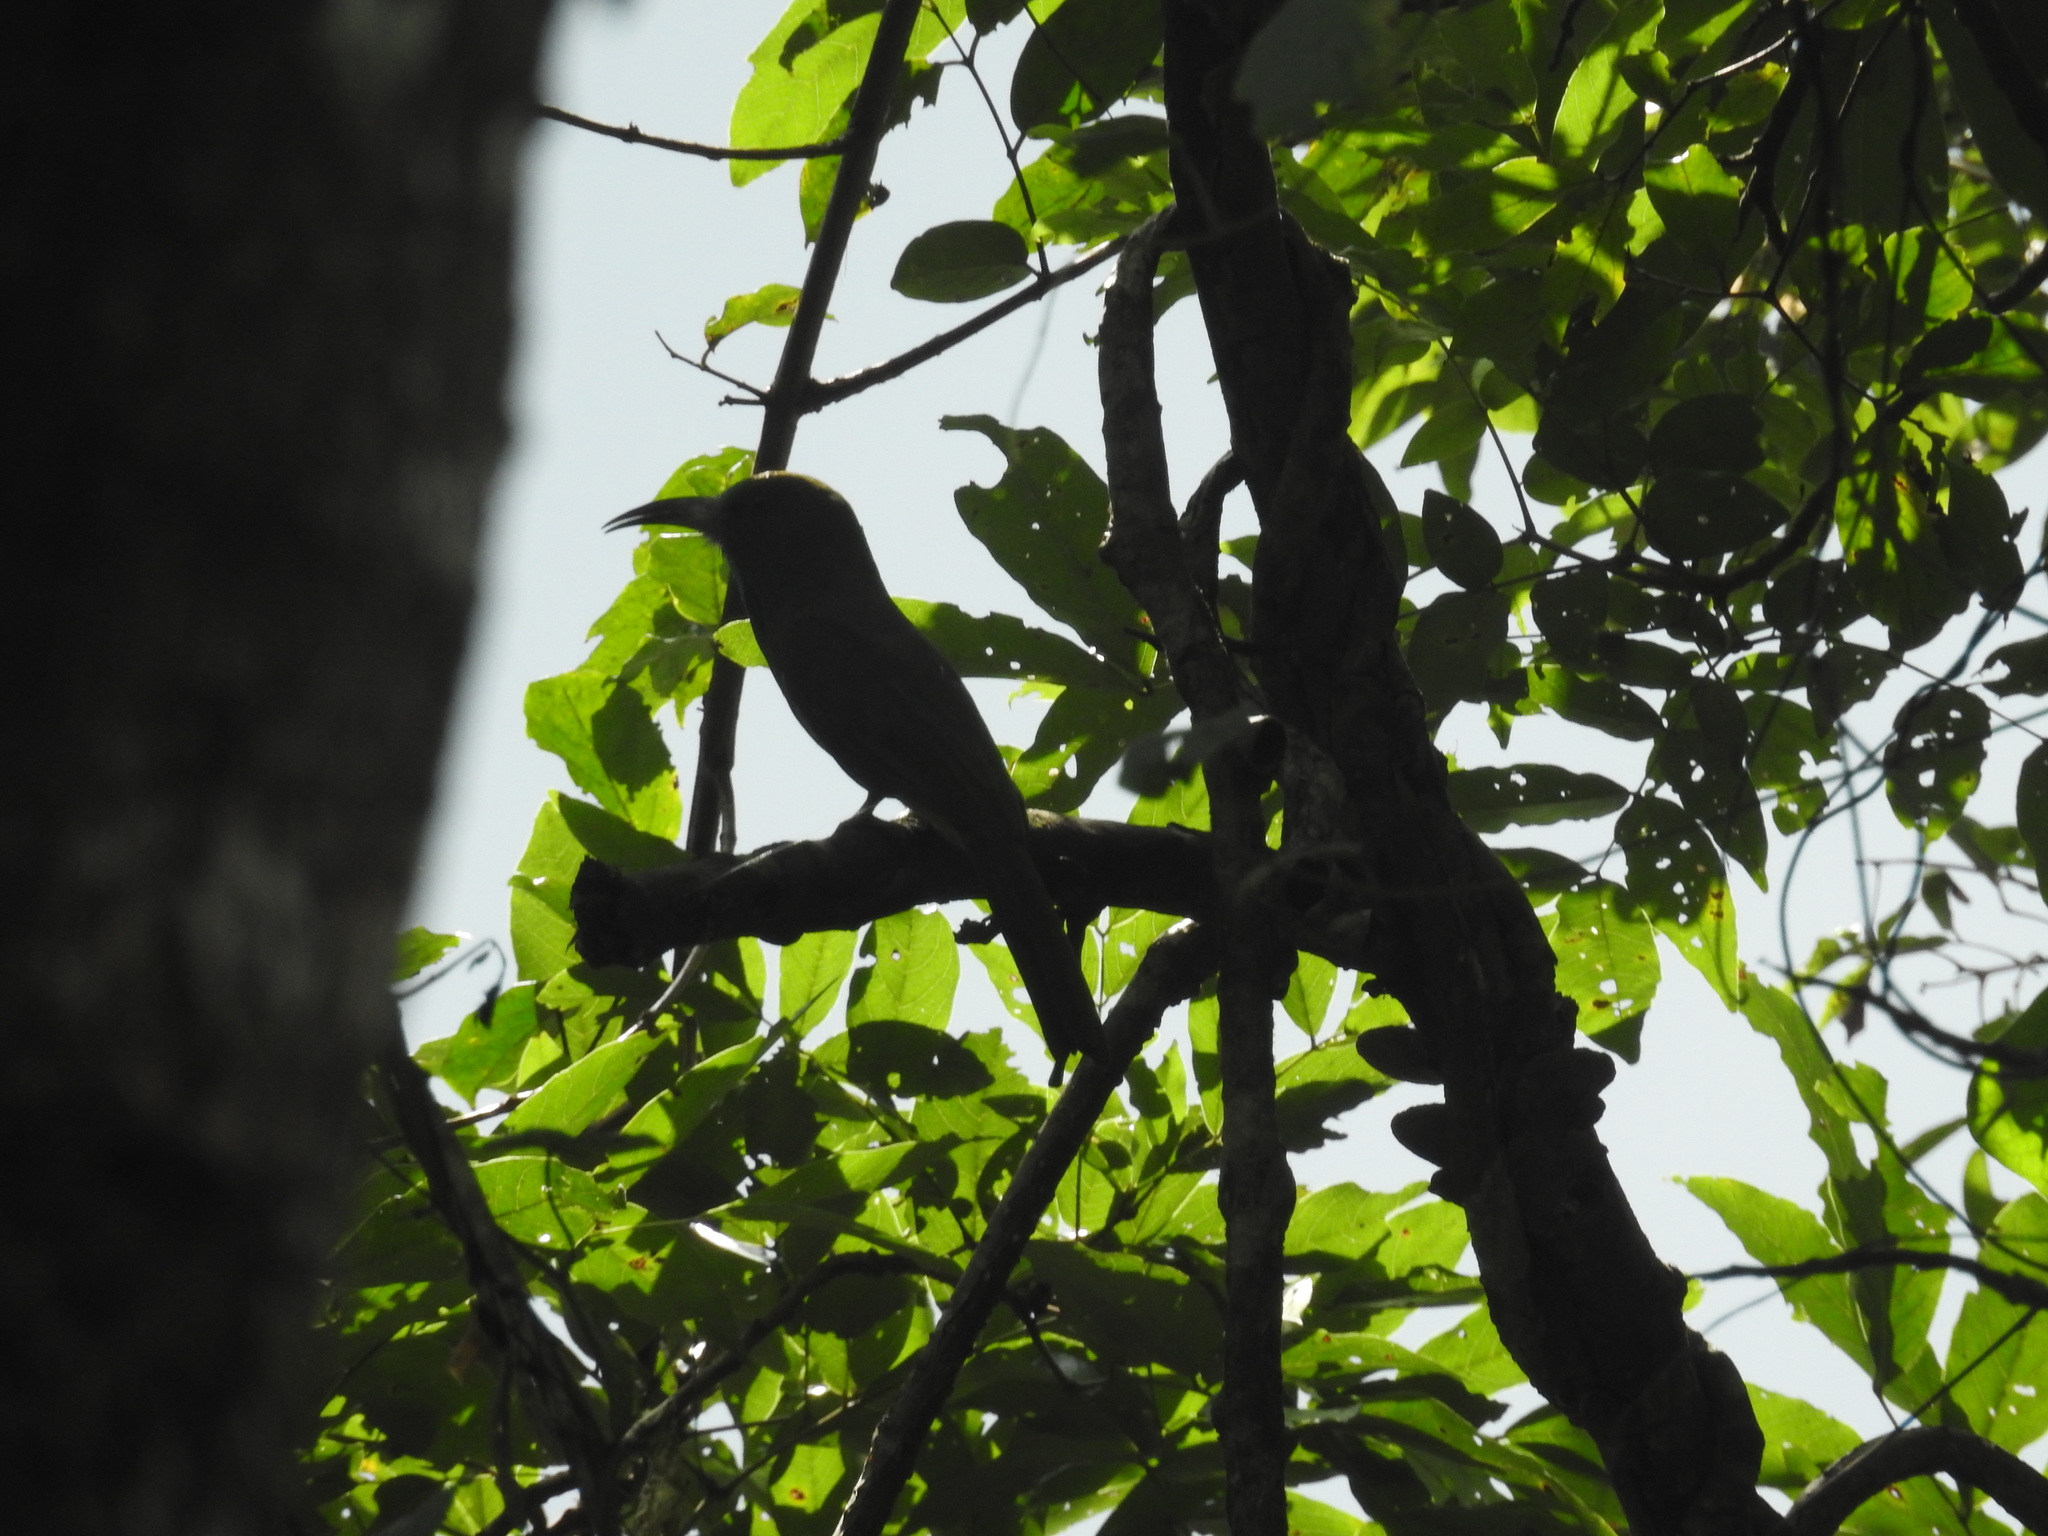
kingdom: Animalia
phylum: Chordata
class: Aves
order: Coraciiformes
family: Meropidae
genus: Nyctyornis
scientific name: Nyctyornis athertoni
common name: Blue-bearded bee-eater
